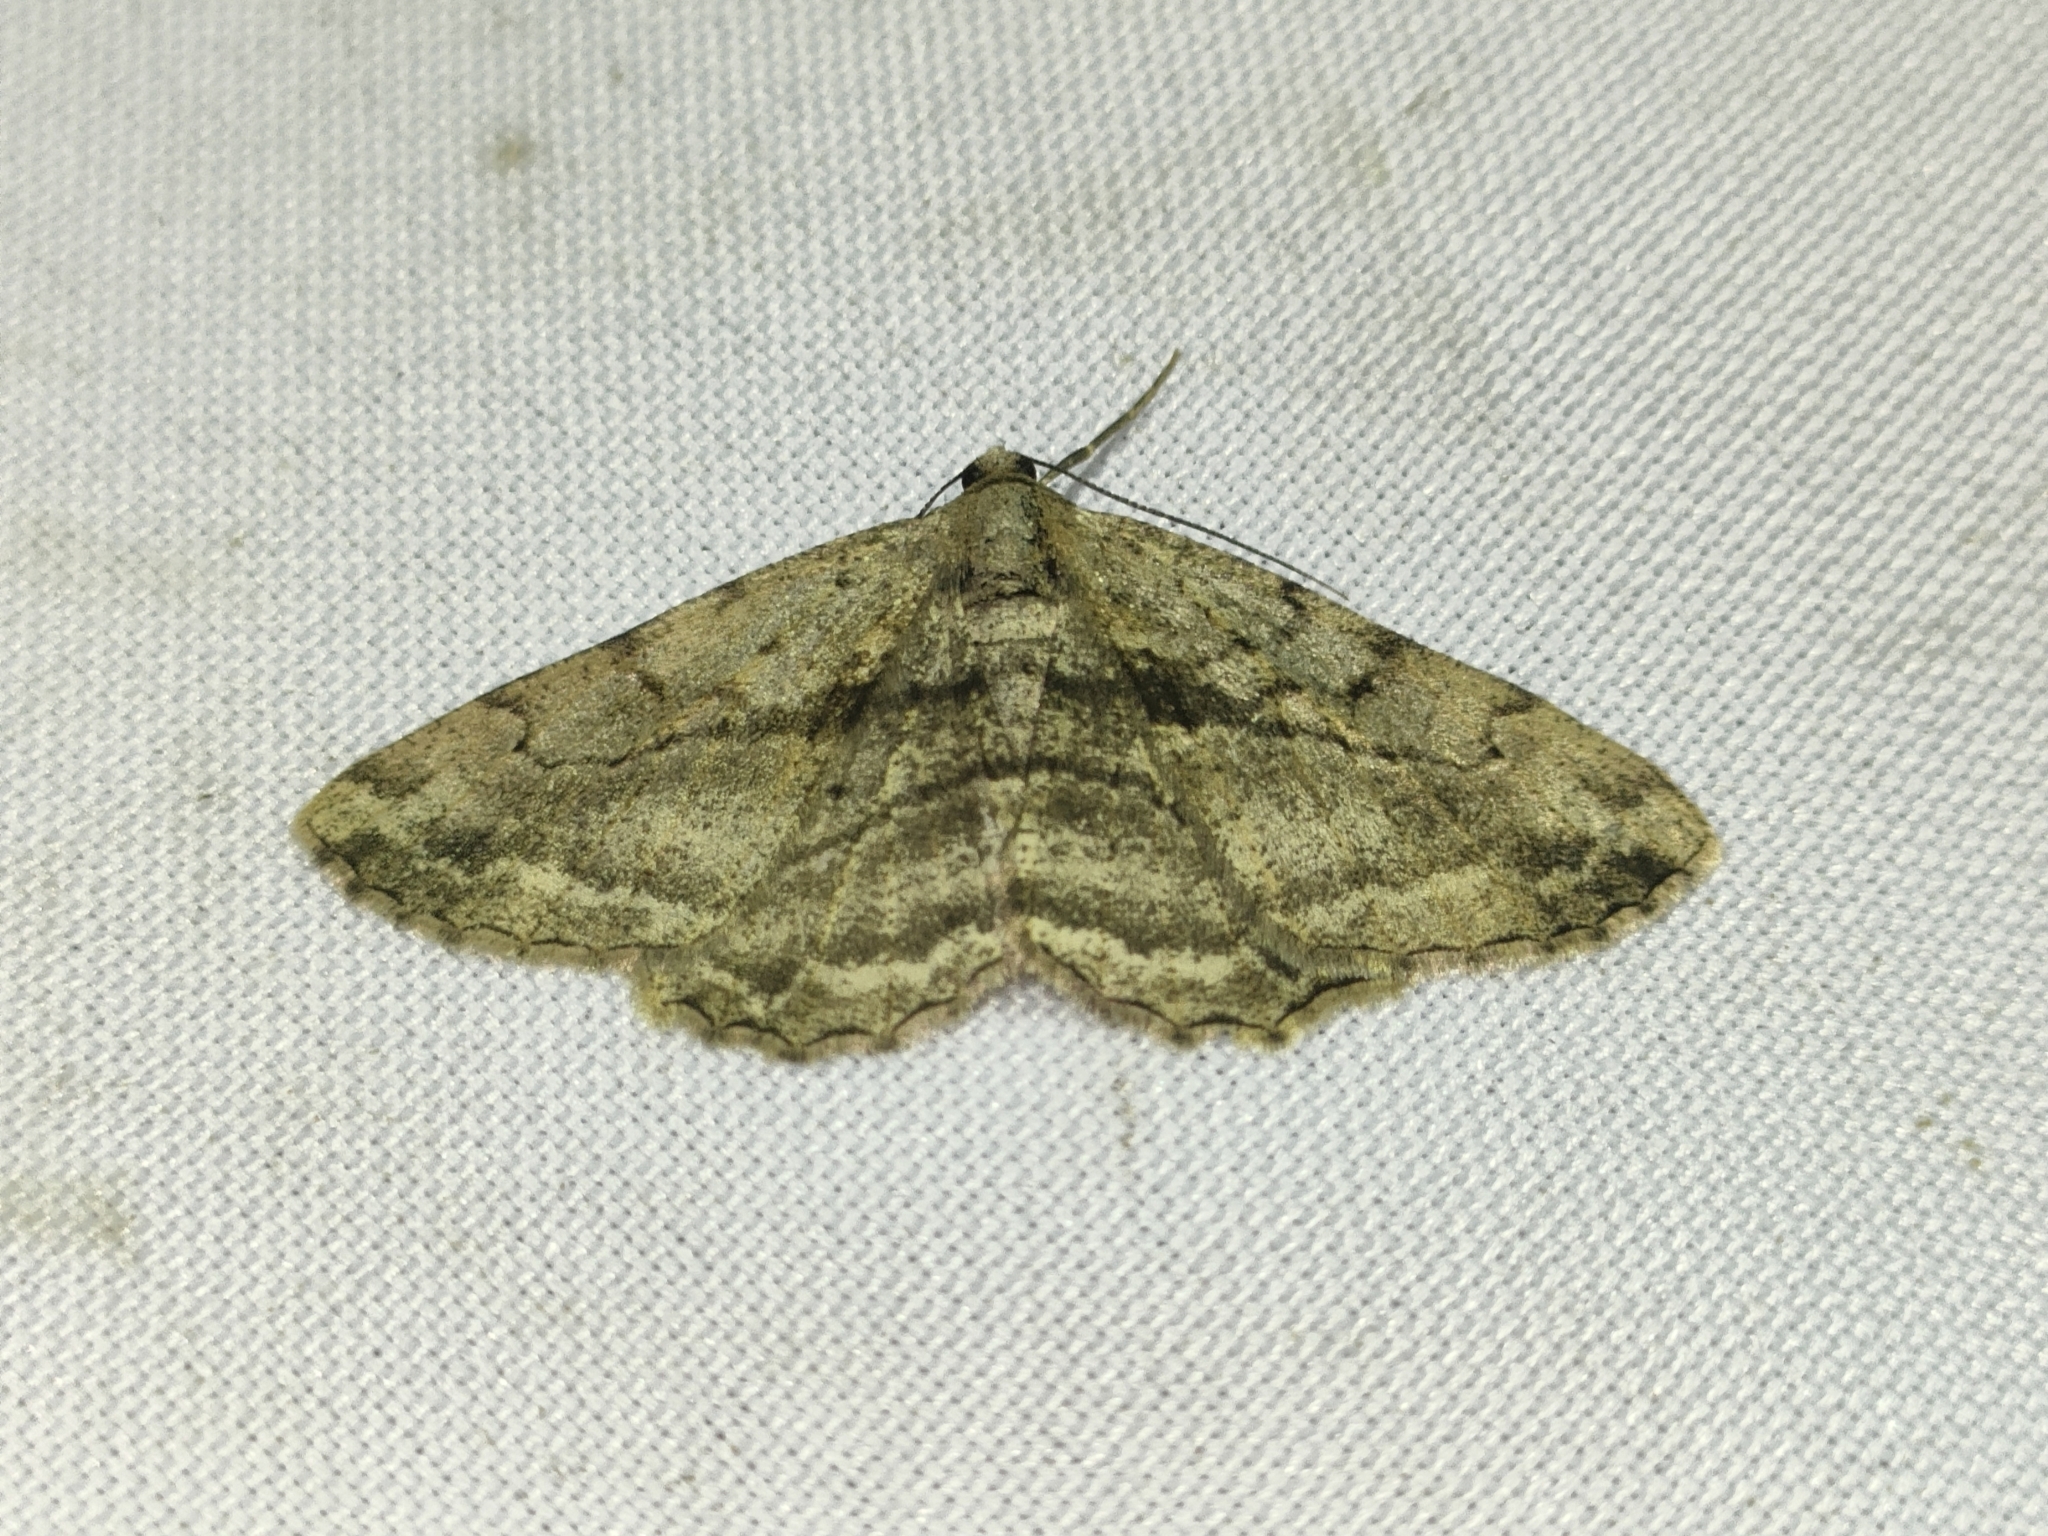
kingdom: Animalia
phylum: Arthropoda
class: Insecta
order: Lepidoptera
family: Geometridae
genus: Peribatodes
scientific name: Peribatodes rhomboidaria
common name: Willow beauty
